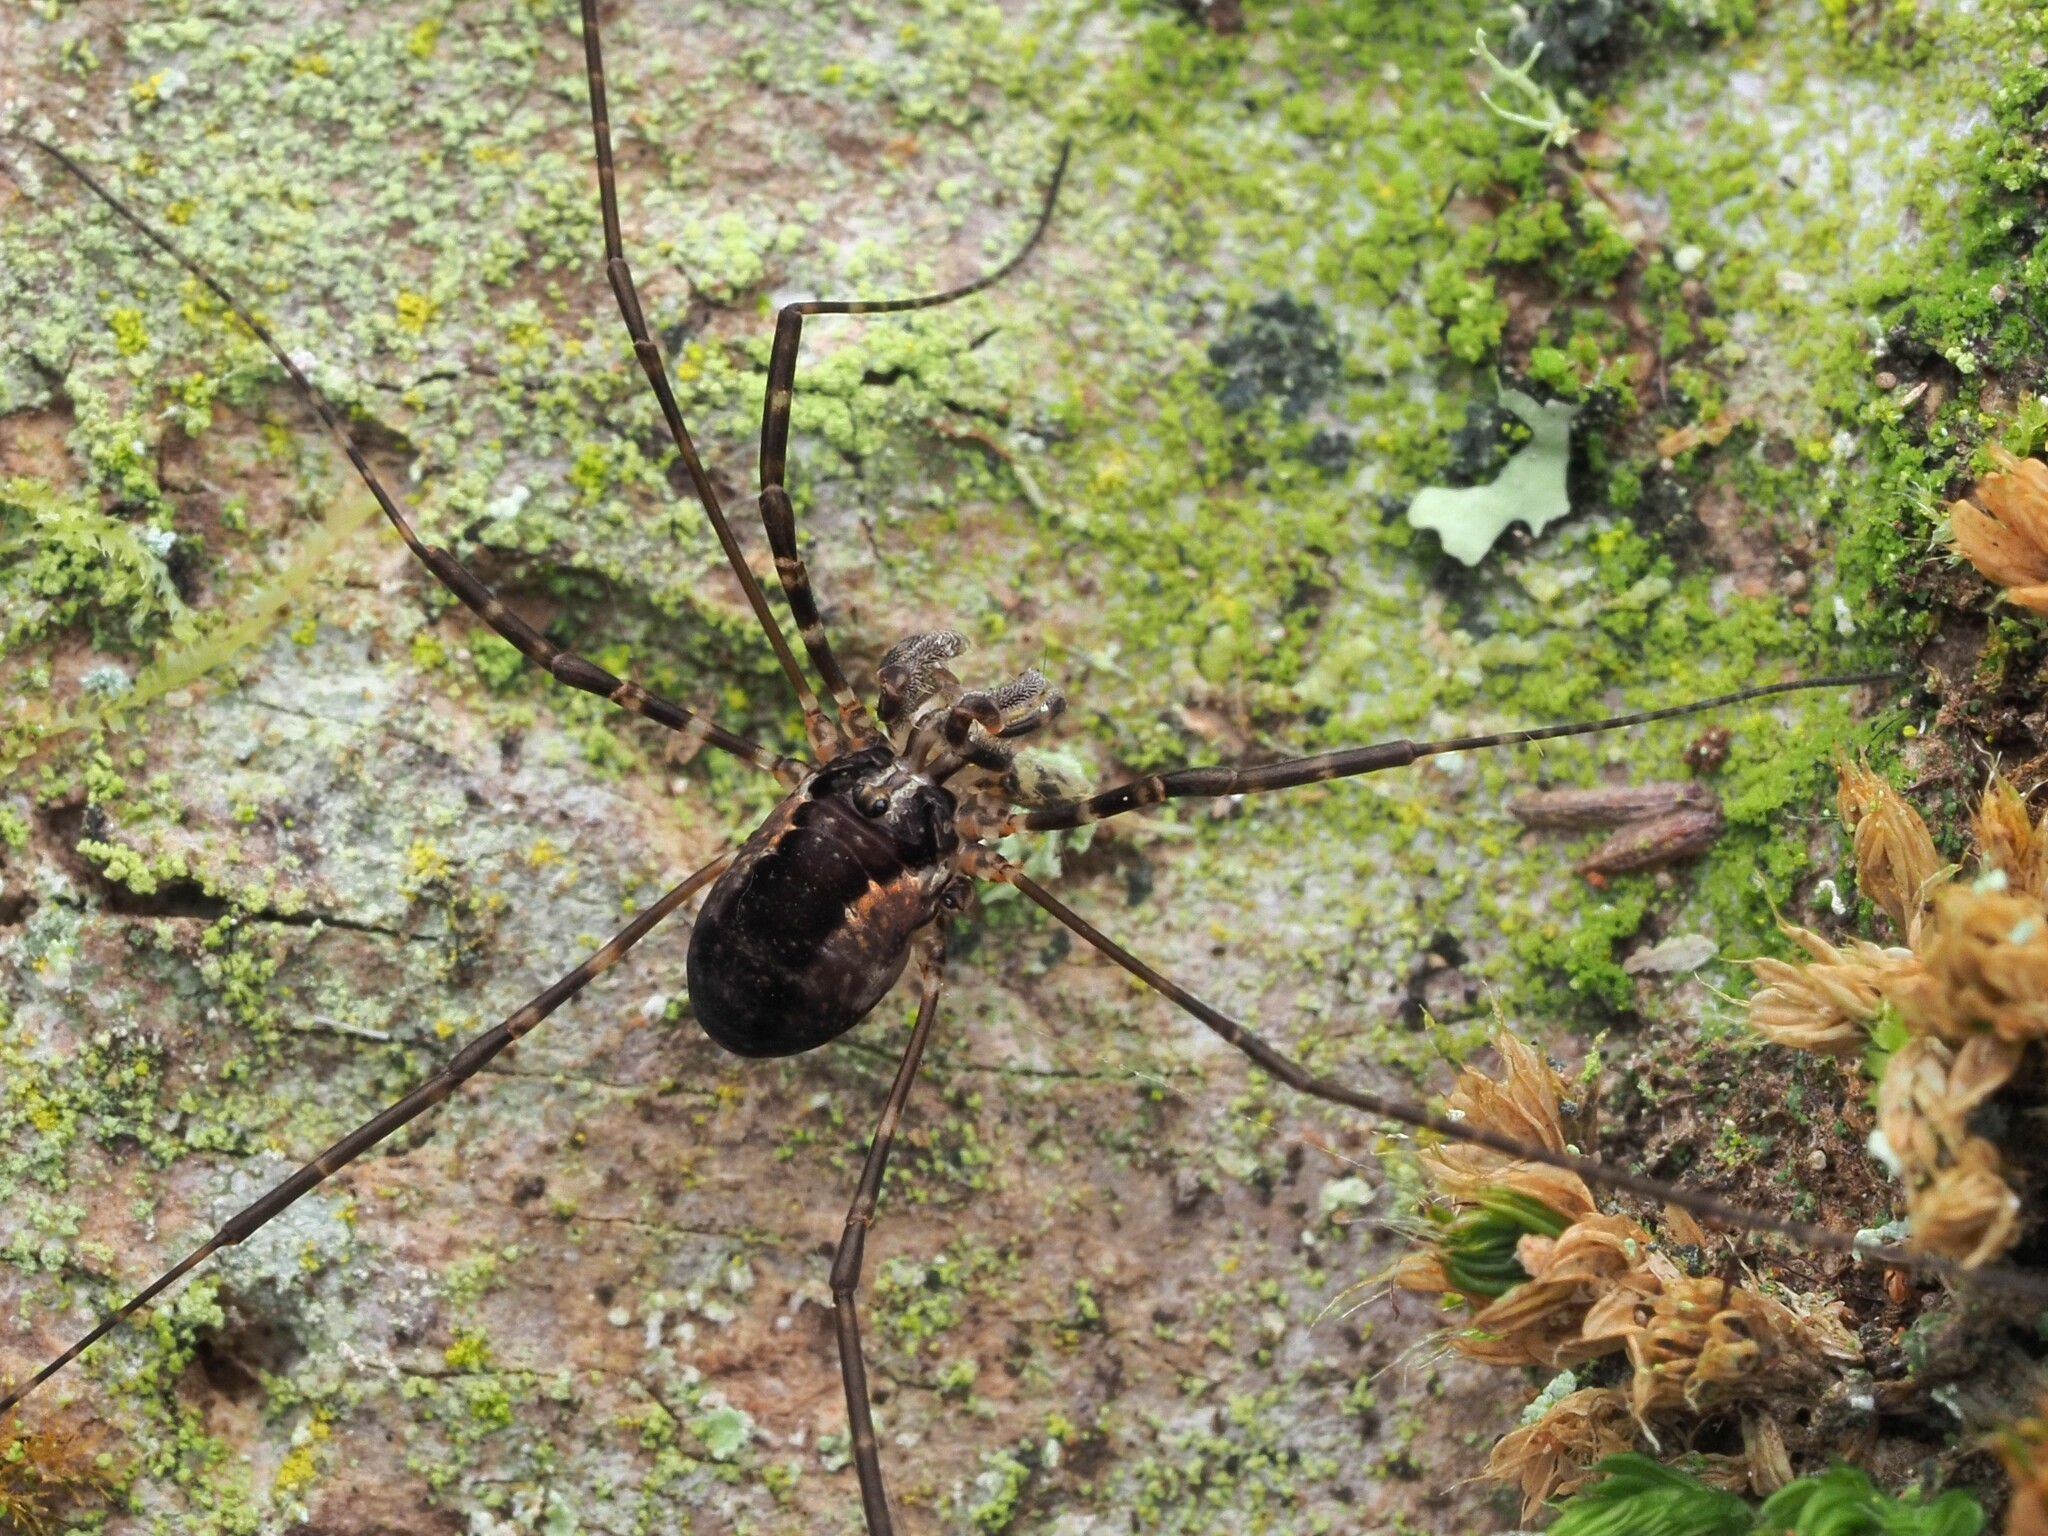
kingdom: Animalia
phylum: Arthropoda
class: Arachnida
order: Opiliones
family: Neopilionidae
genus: Megalopsalis
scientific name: Megalopsalis triascuta
